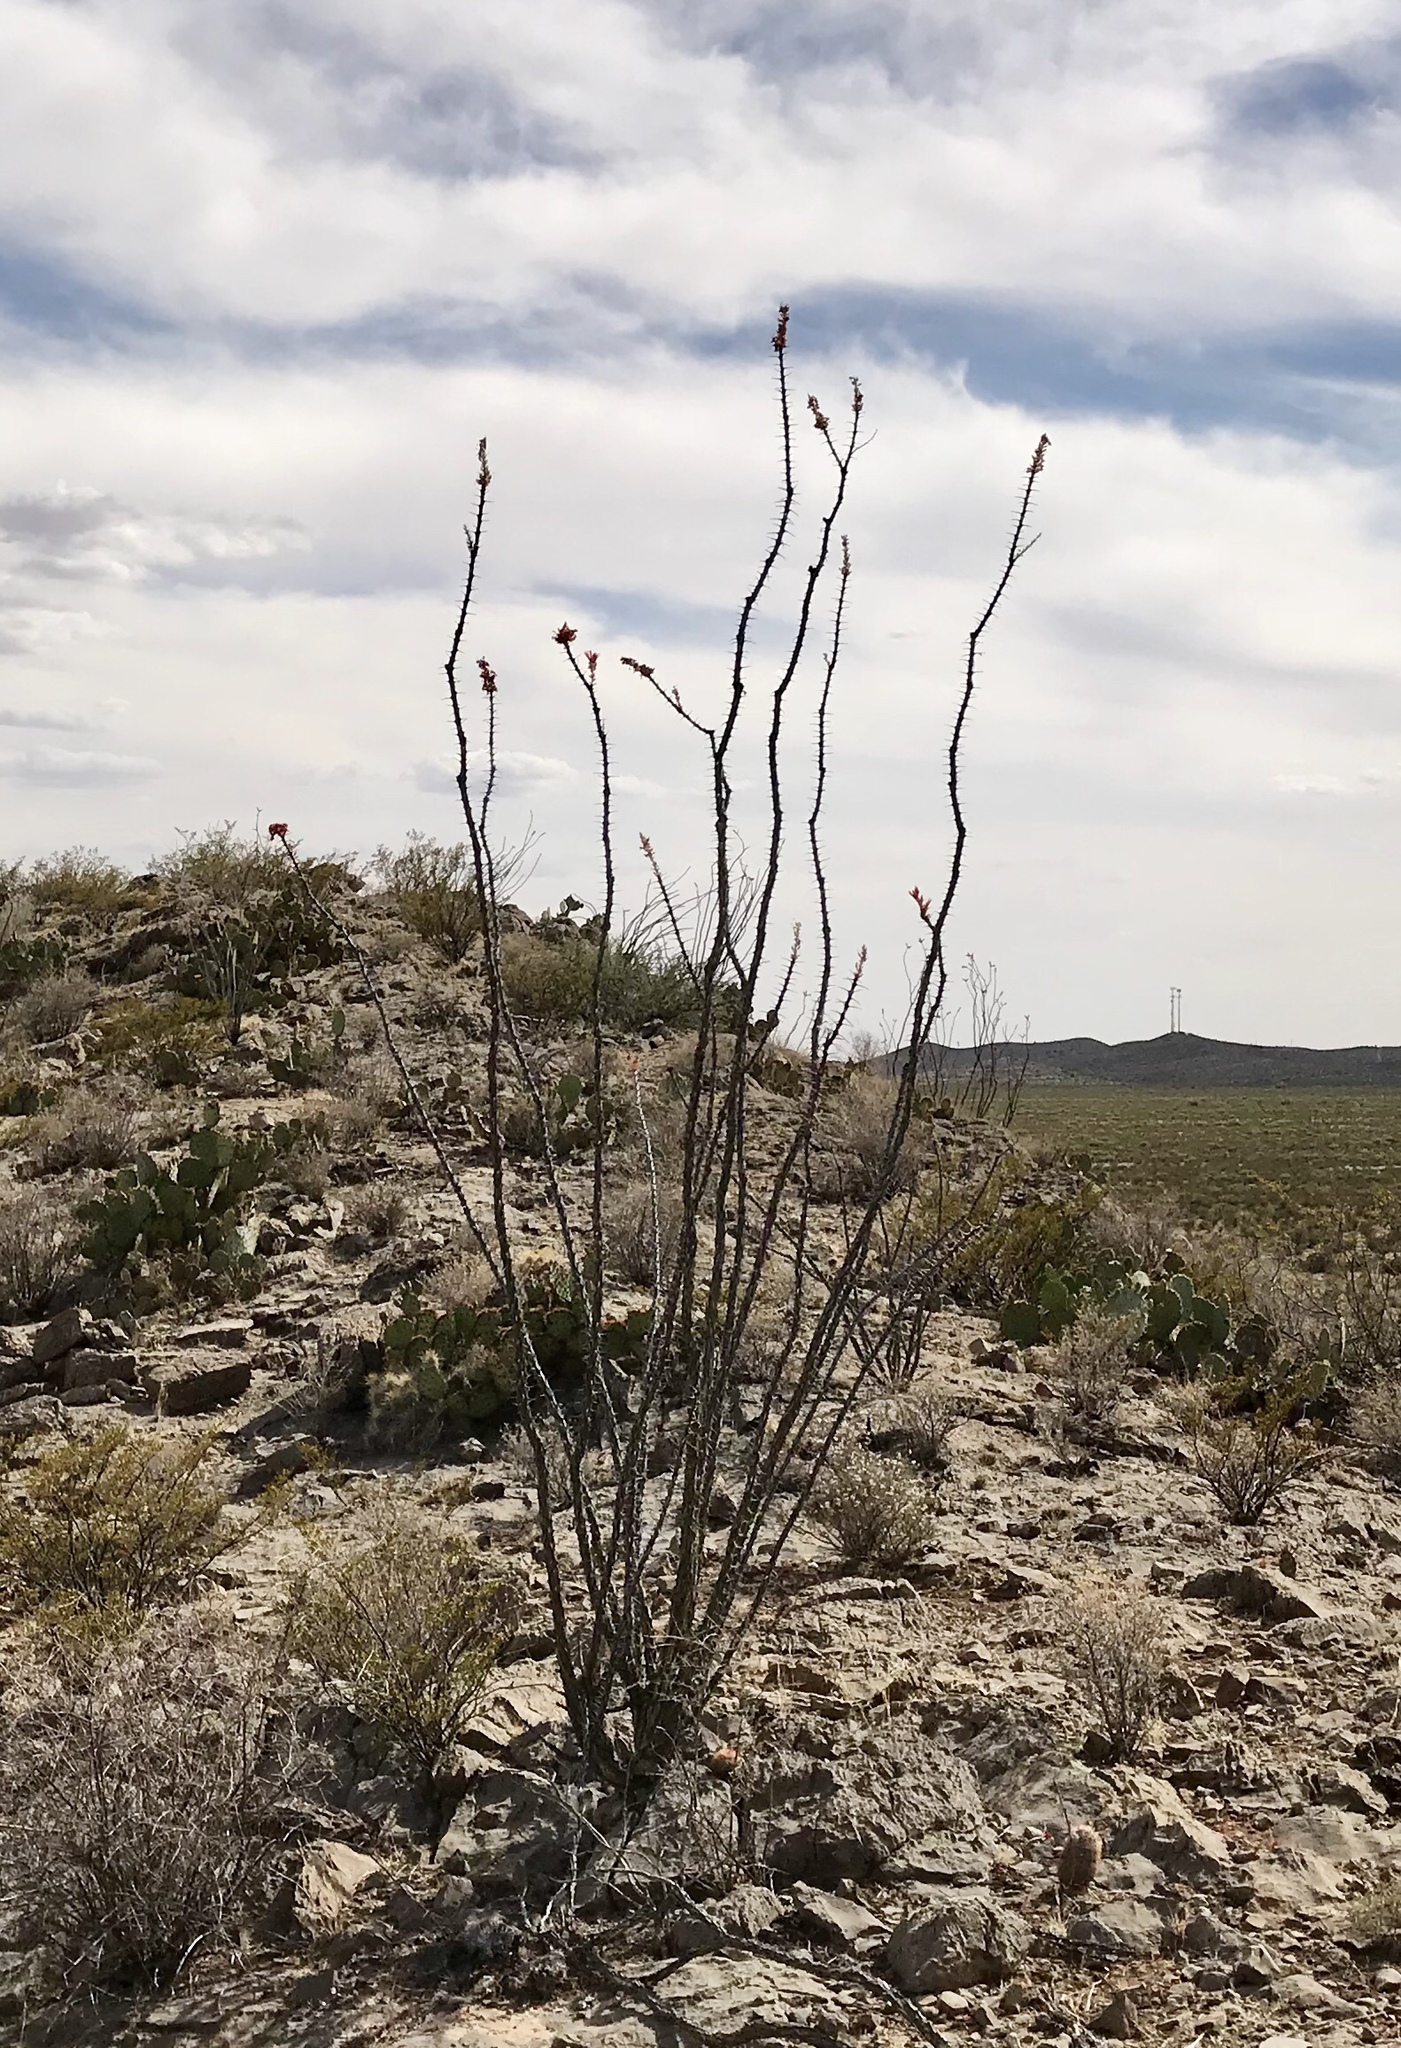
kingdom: Plantae
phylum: Tracheophyta
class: Magnoliopsida
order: Ericales
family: Fouquieriaceae
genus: Fouquieria
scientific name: Fouquieria splendens
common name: Vine-cactus
